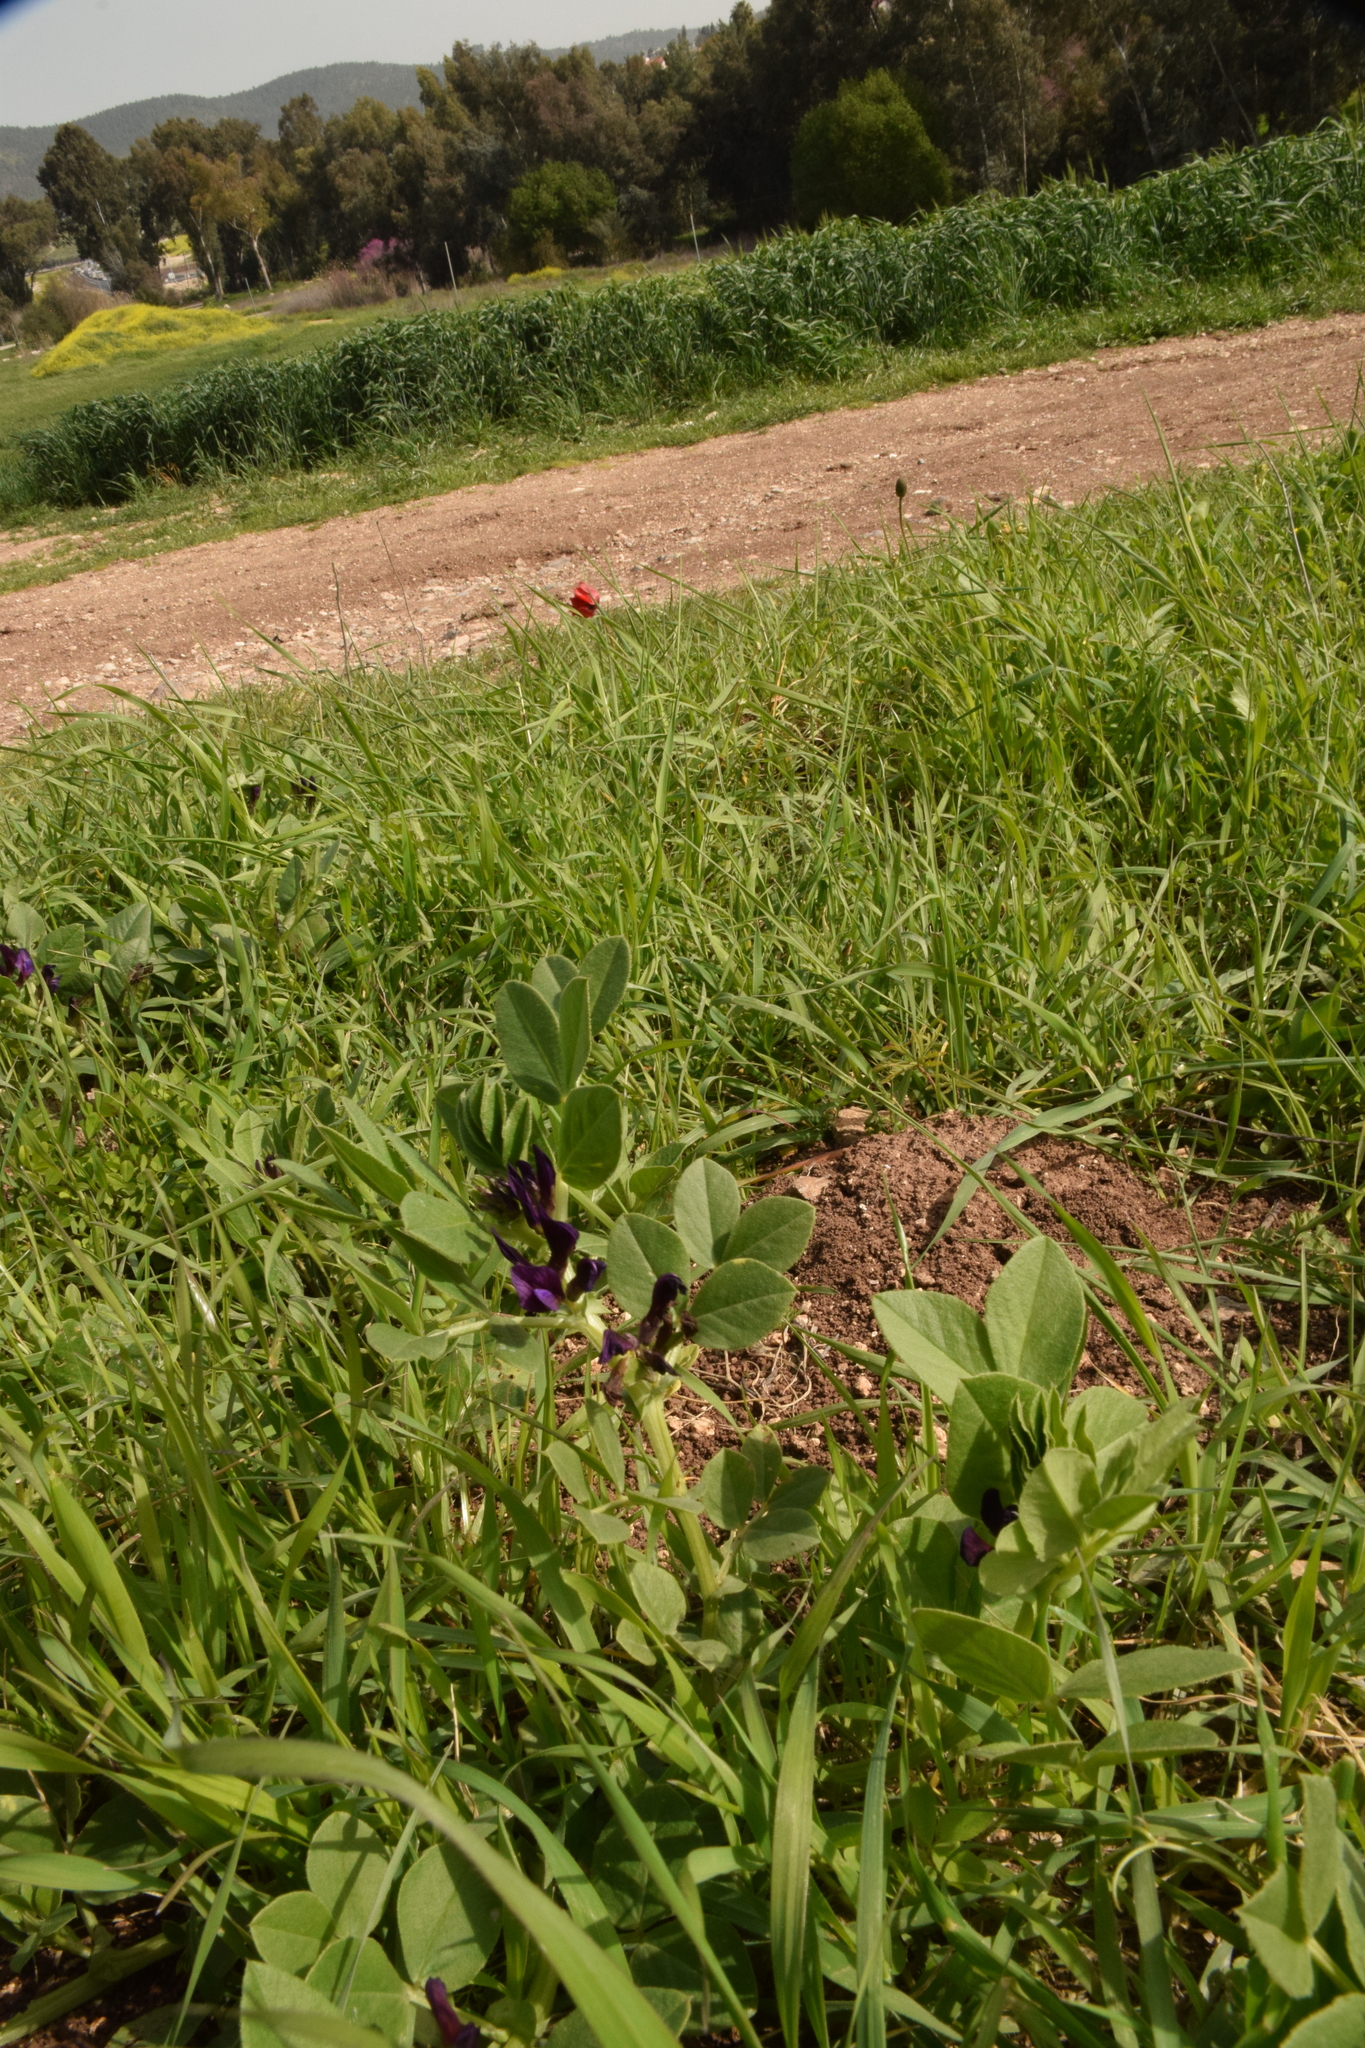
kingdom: Plantae
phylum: Tracheophyta
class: Magnoliopsida
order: Fabales
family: Fabaceae
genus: Vicia
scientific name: Vicia narbonensis
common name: Narbonne vetch
